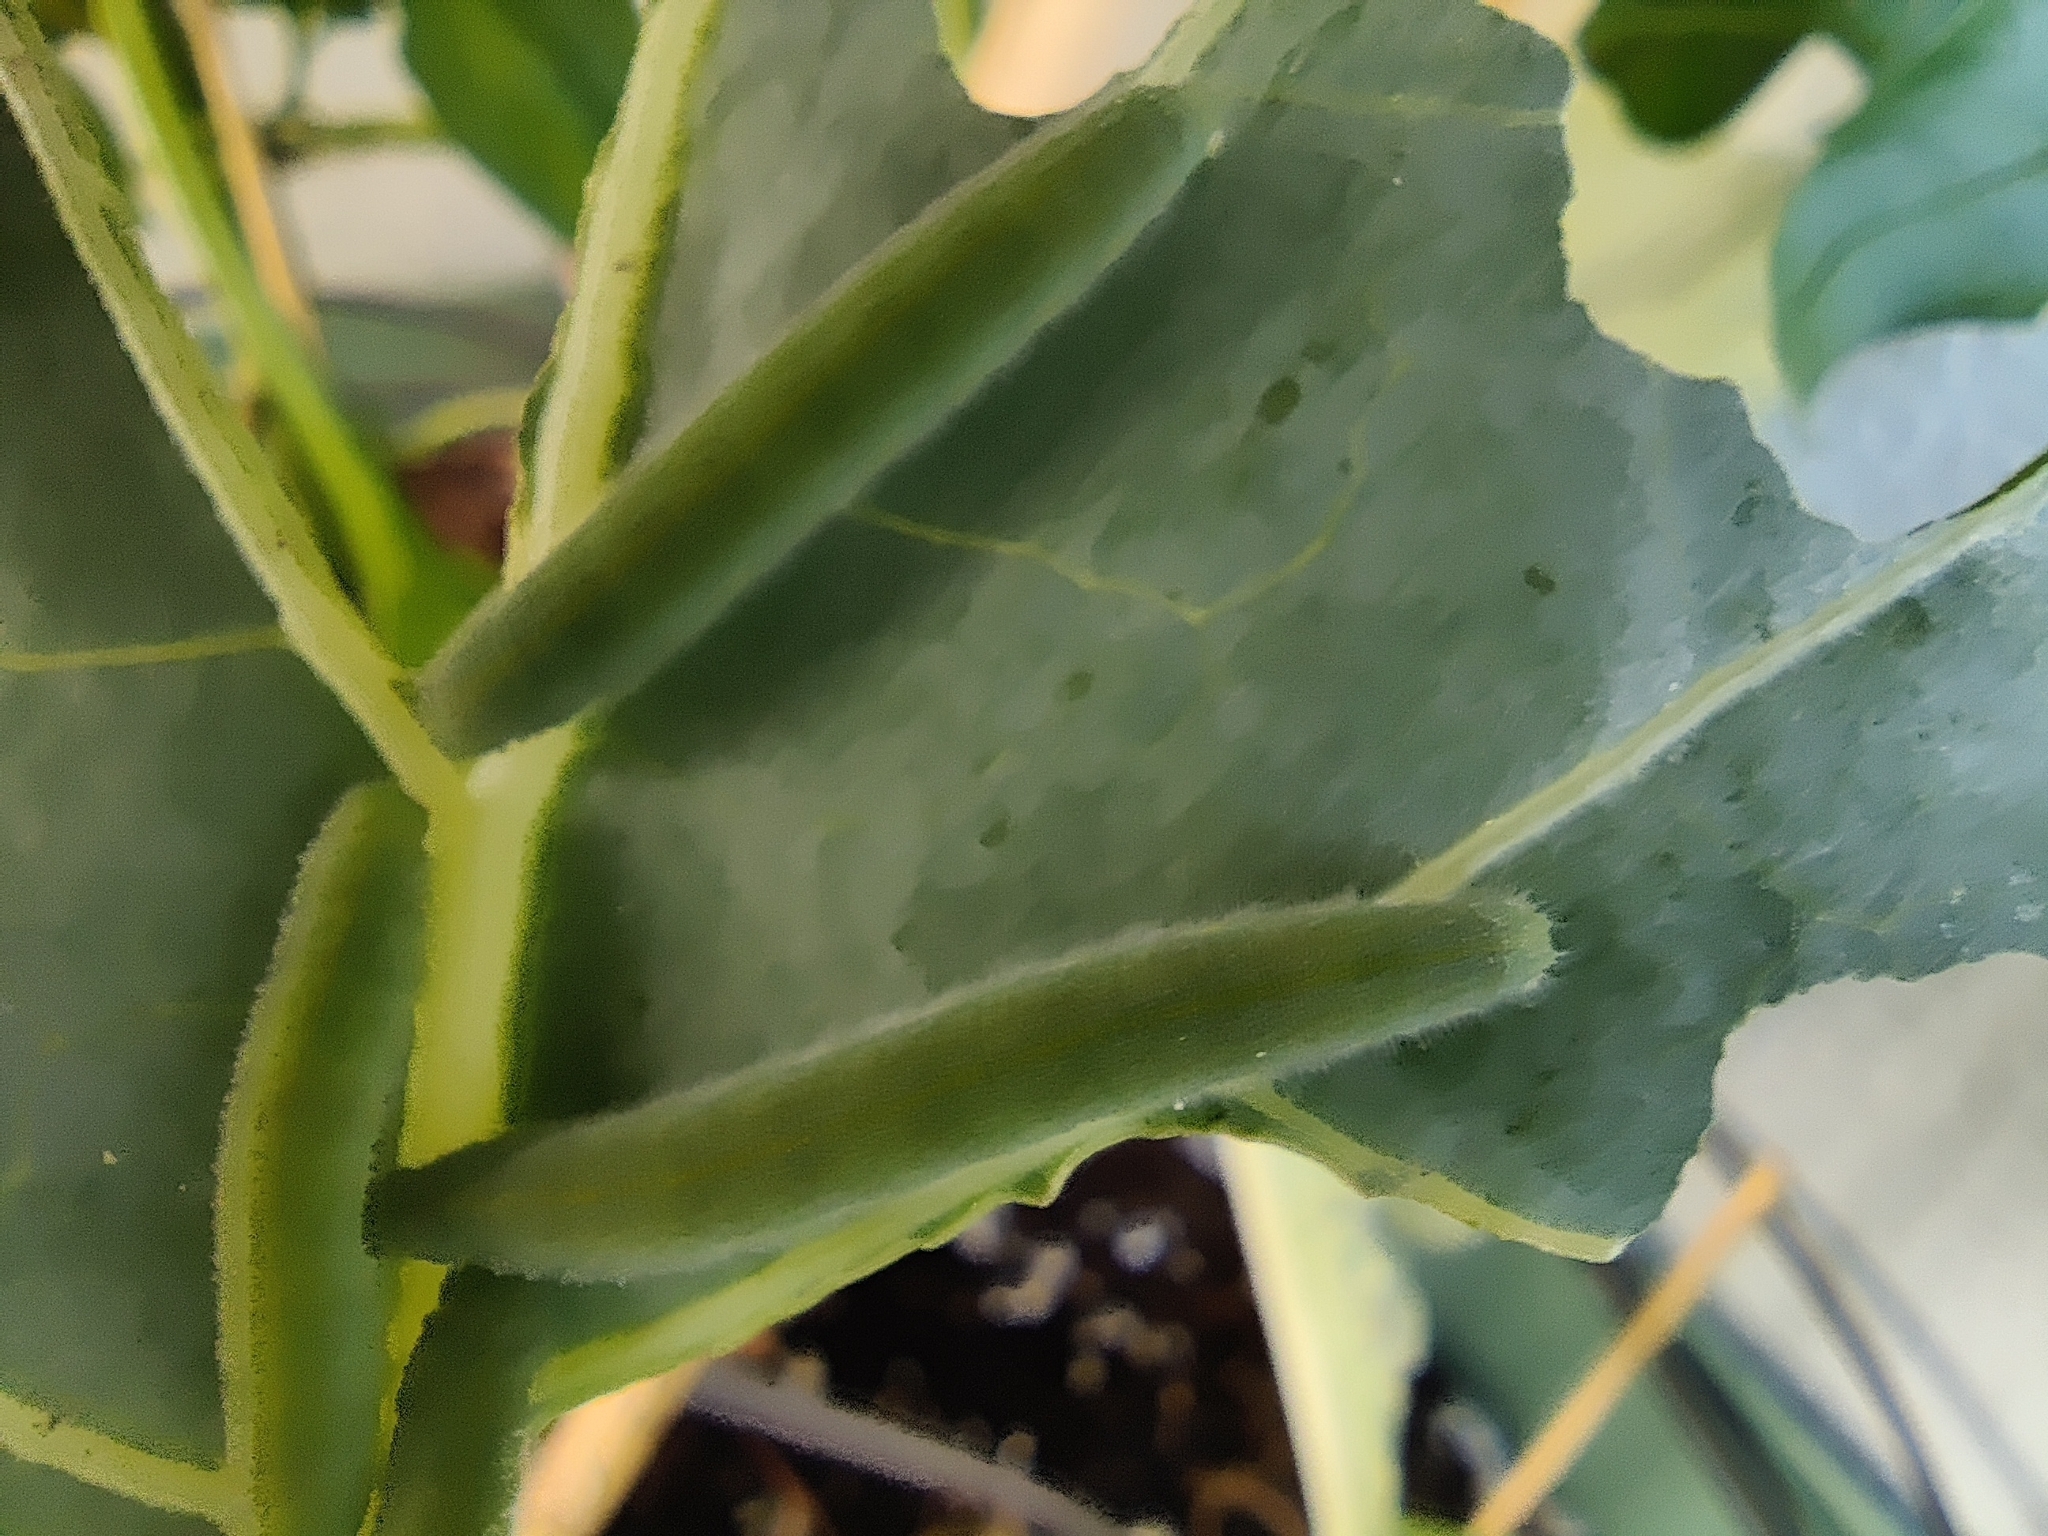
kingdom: Animalia
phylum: Arthropoda
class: Insecta
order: Lepidoptera
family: Pieridae
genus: Pieris
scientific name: Pieris rapae
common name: Small white
